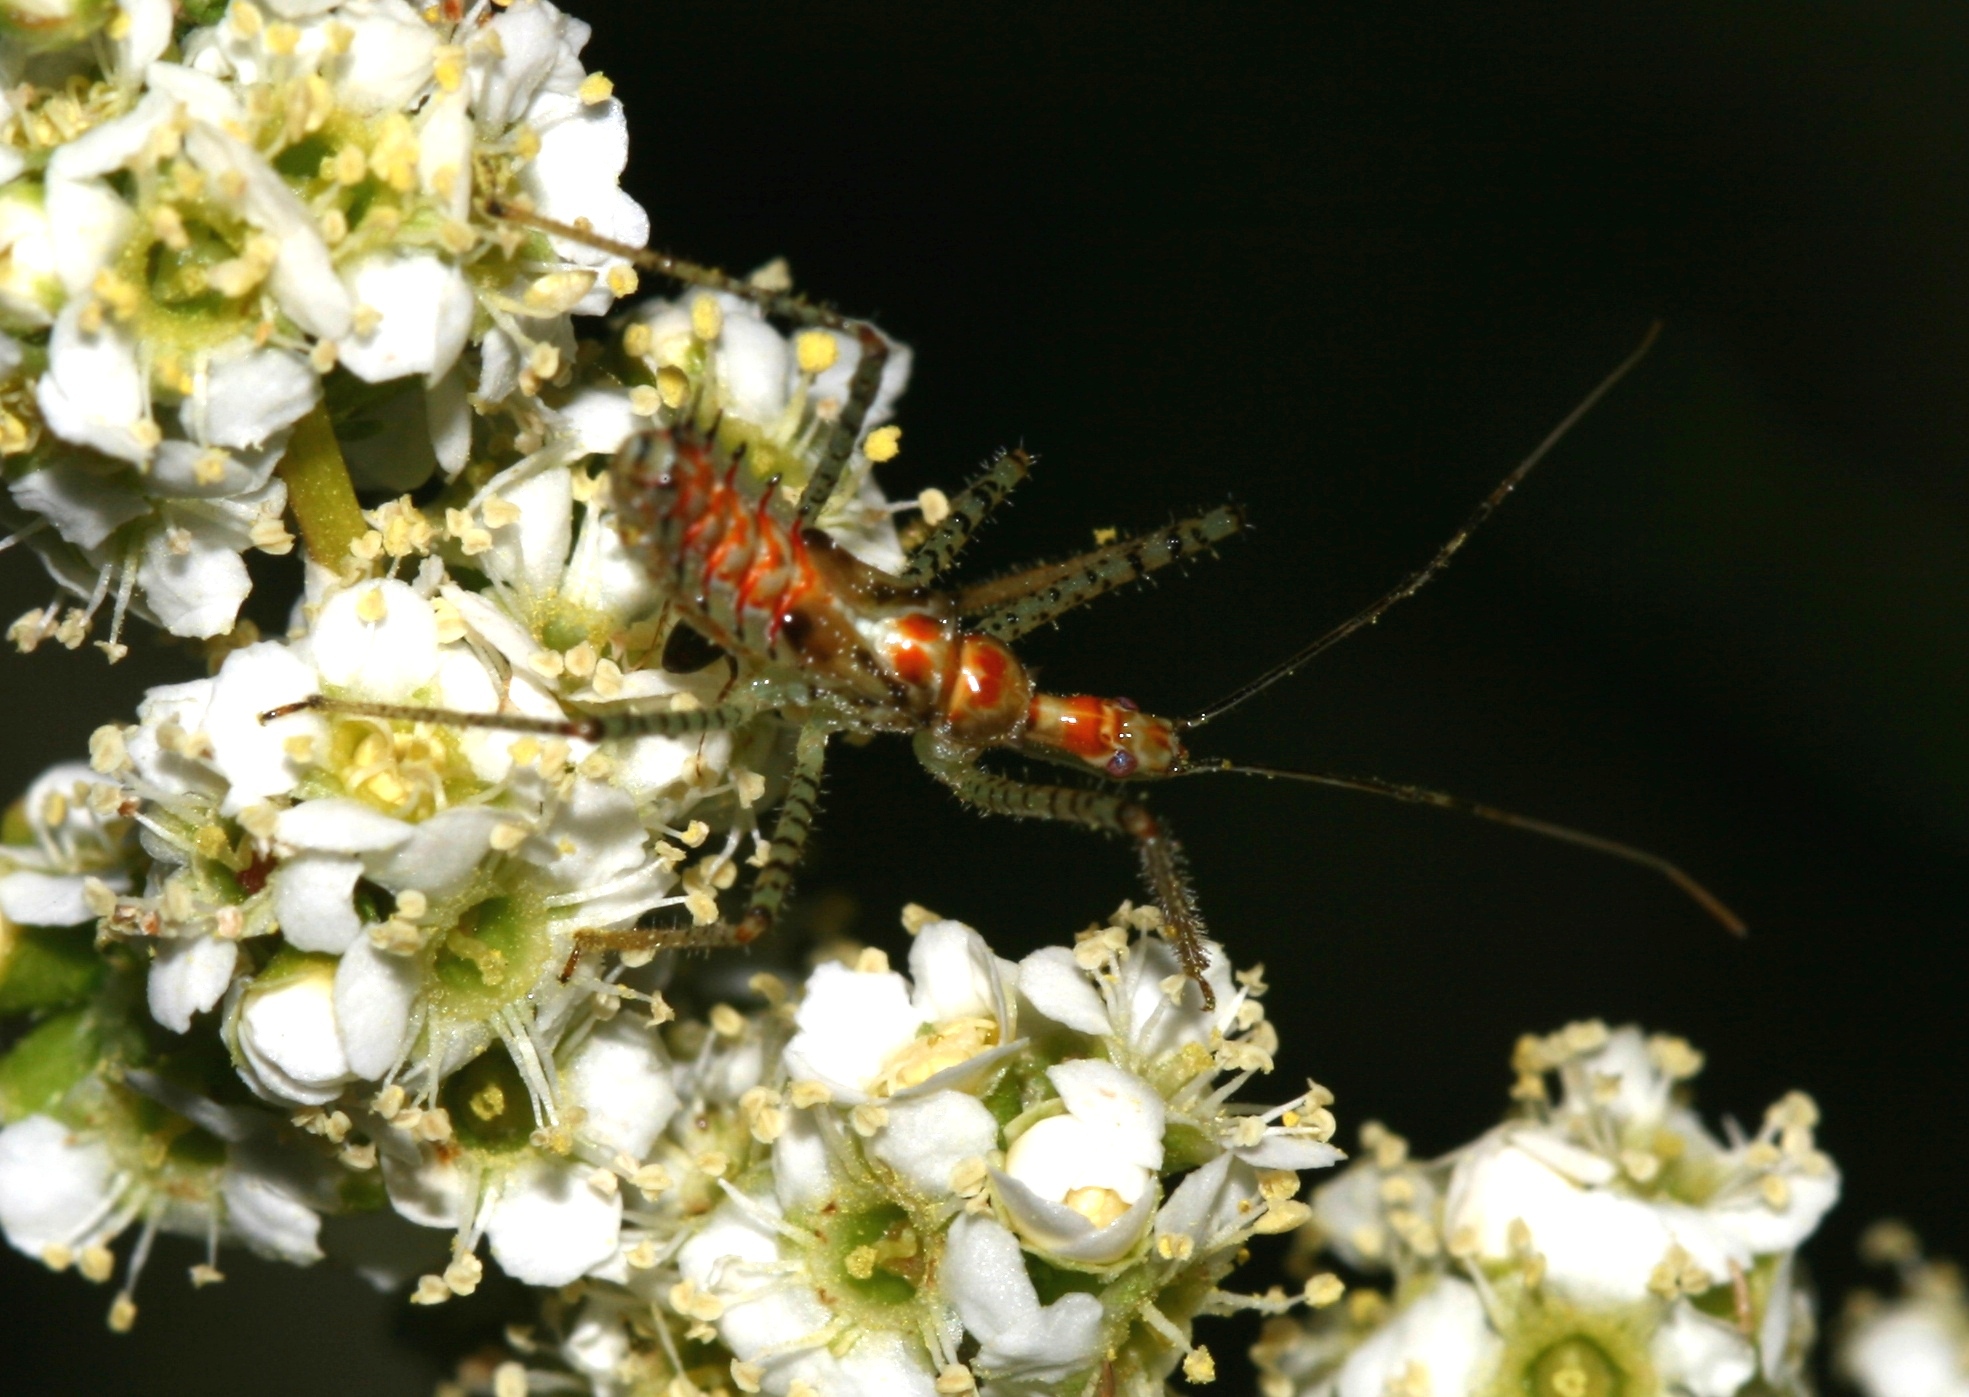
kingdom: Animalia
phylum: Arthropoda
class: Insecta
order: Hemiptera
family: Reduviidae
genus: Zelus
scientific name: Zelus renardii
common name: Assassin bug
